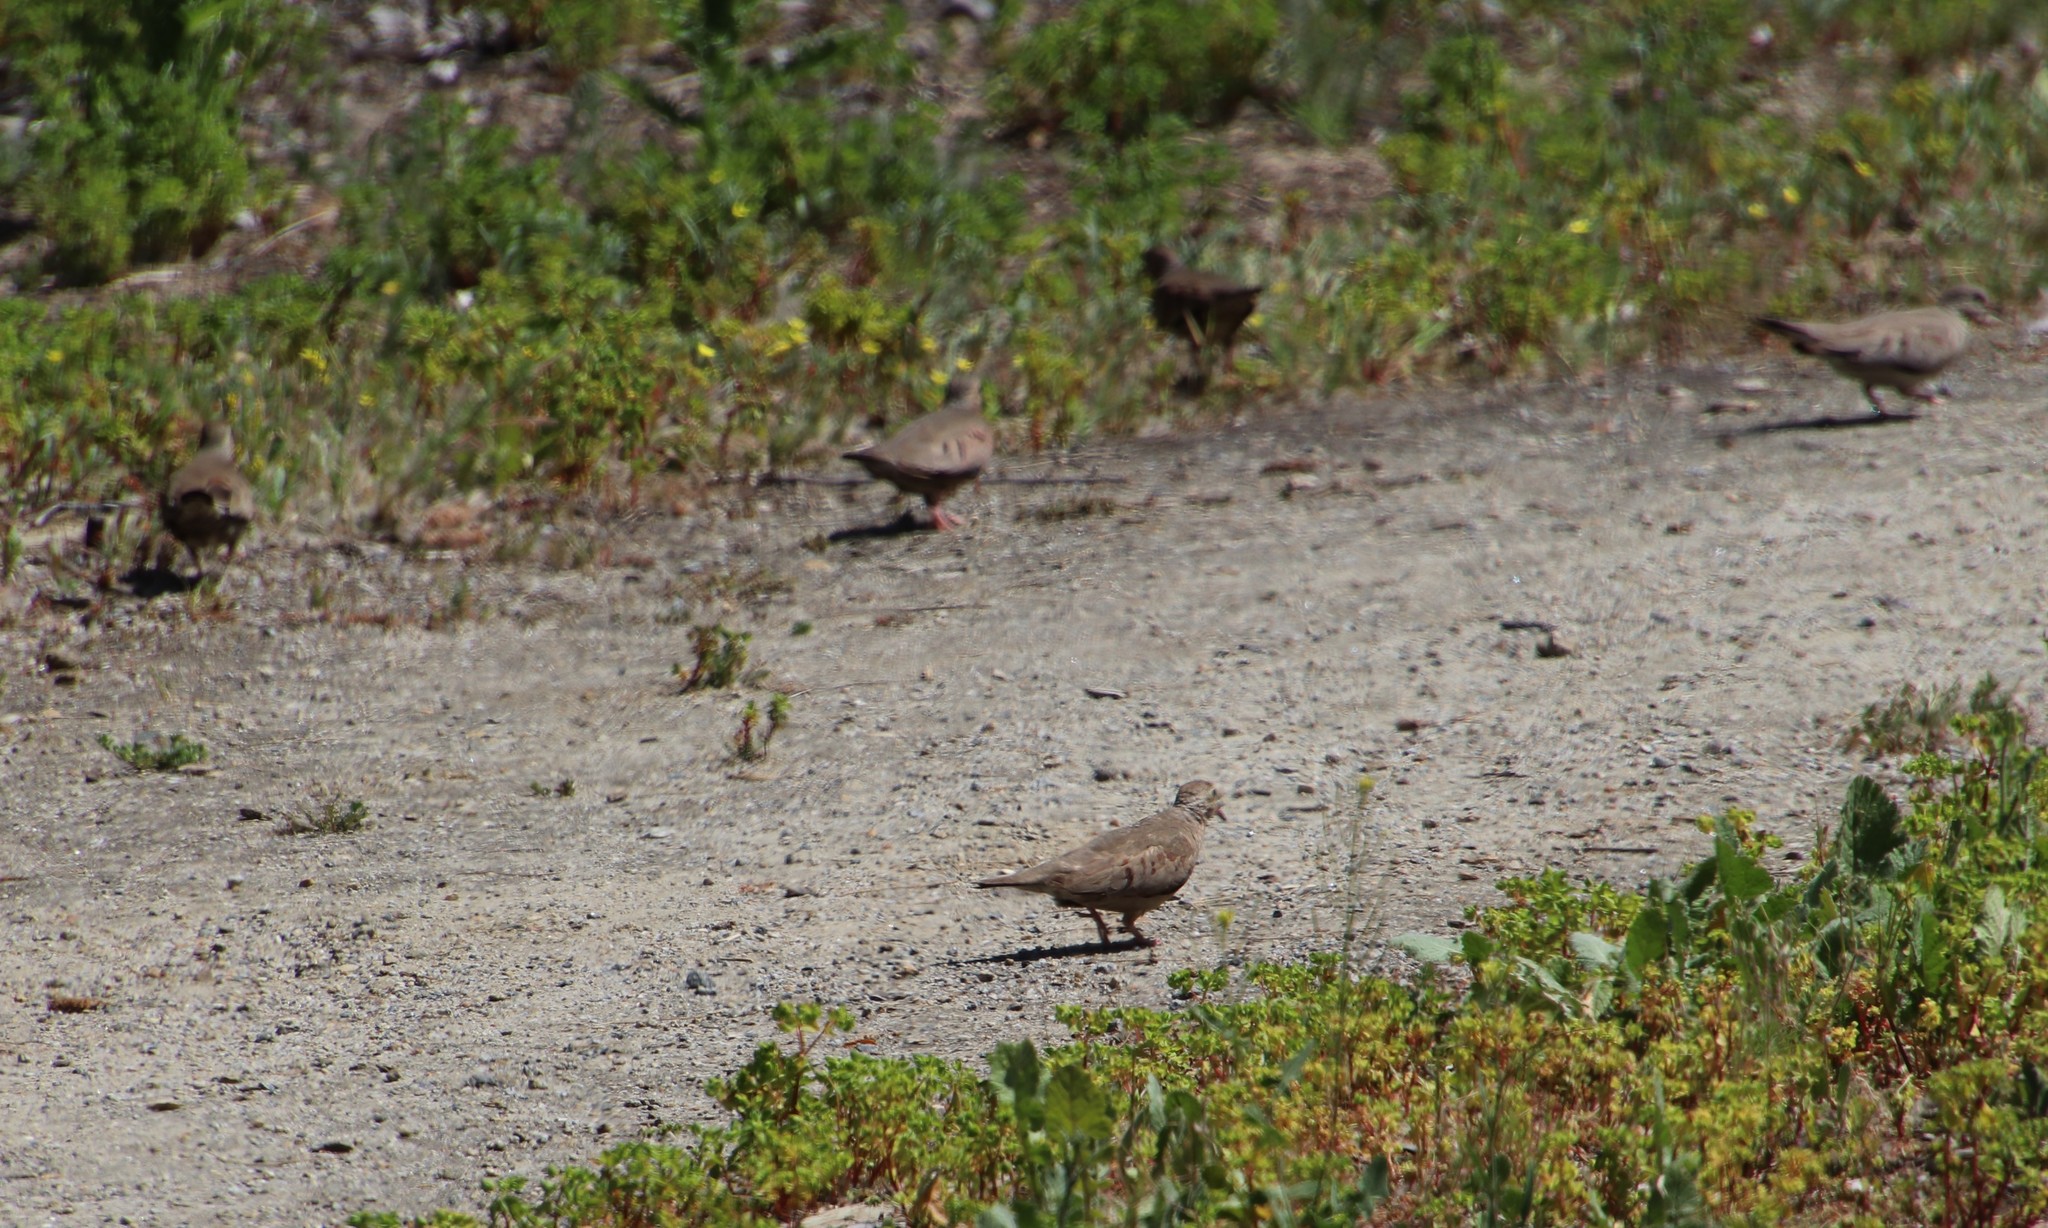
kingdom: Animalia
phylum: Chordata
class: Aves
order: Columbiformes
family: Columbidae
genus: Columbina
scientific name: Columbina passerina
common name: Common ground-dove
